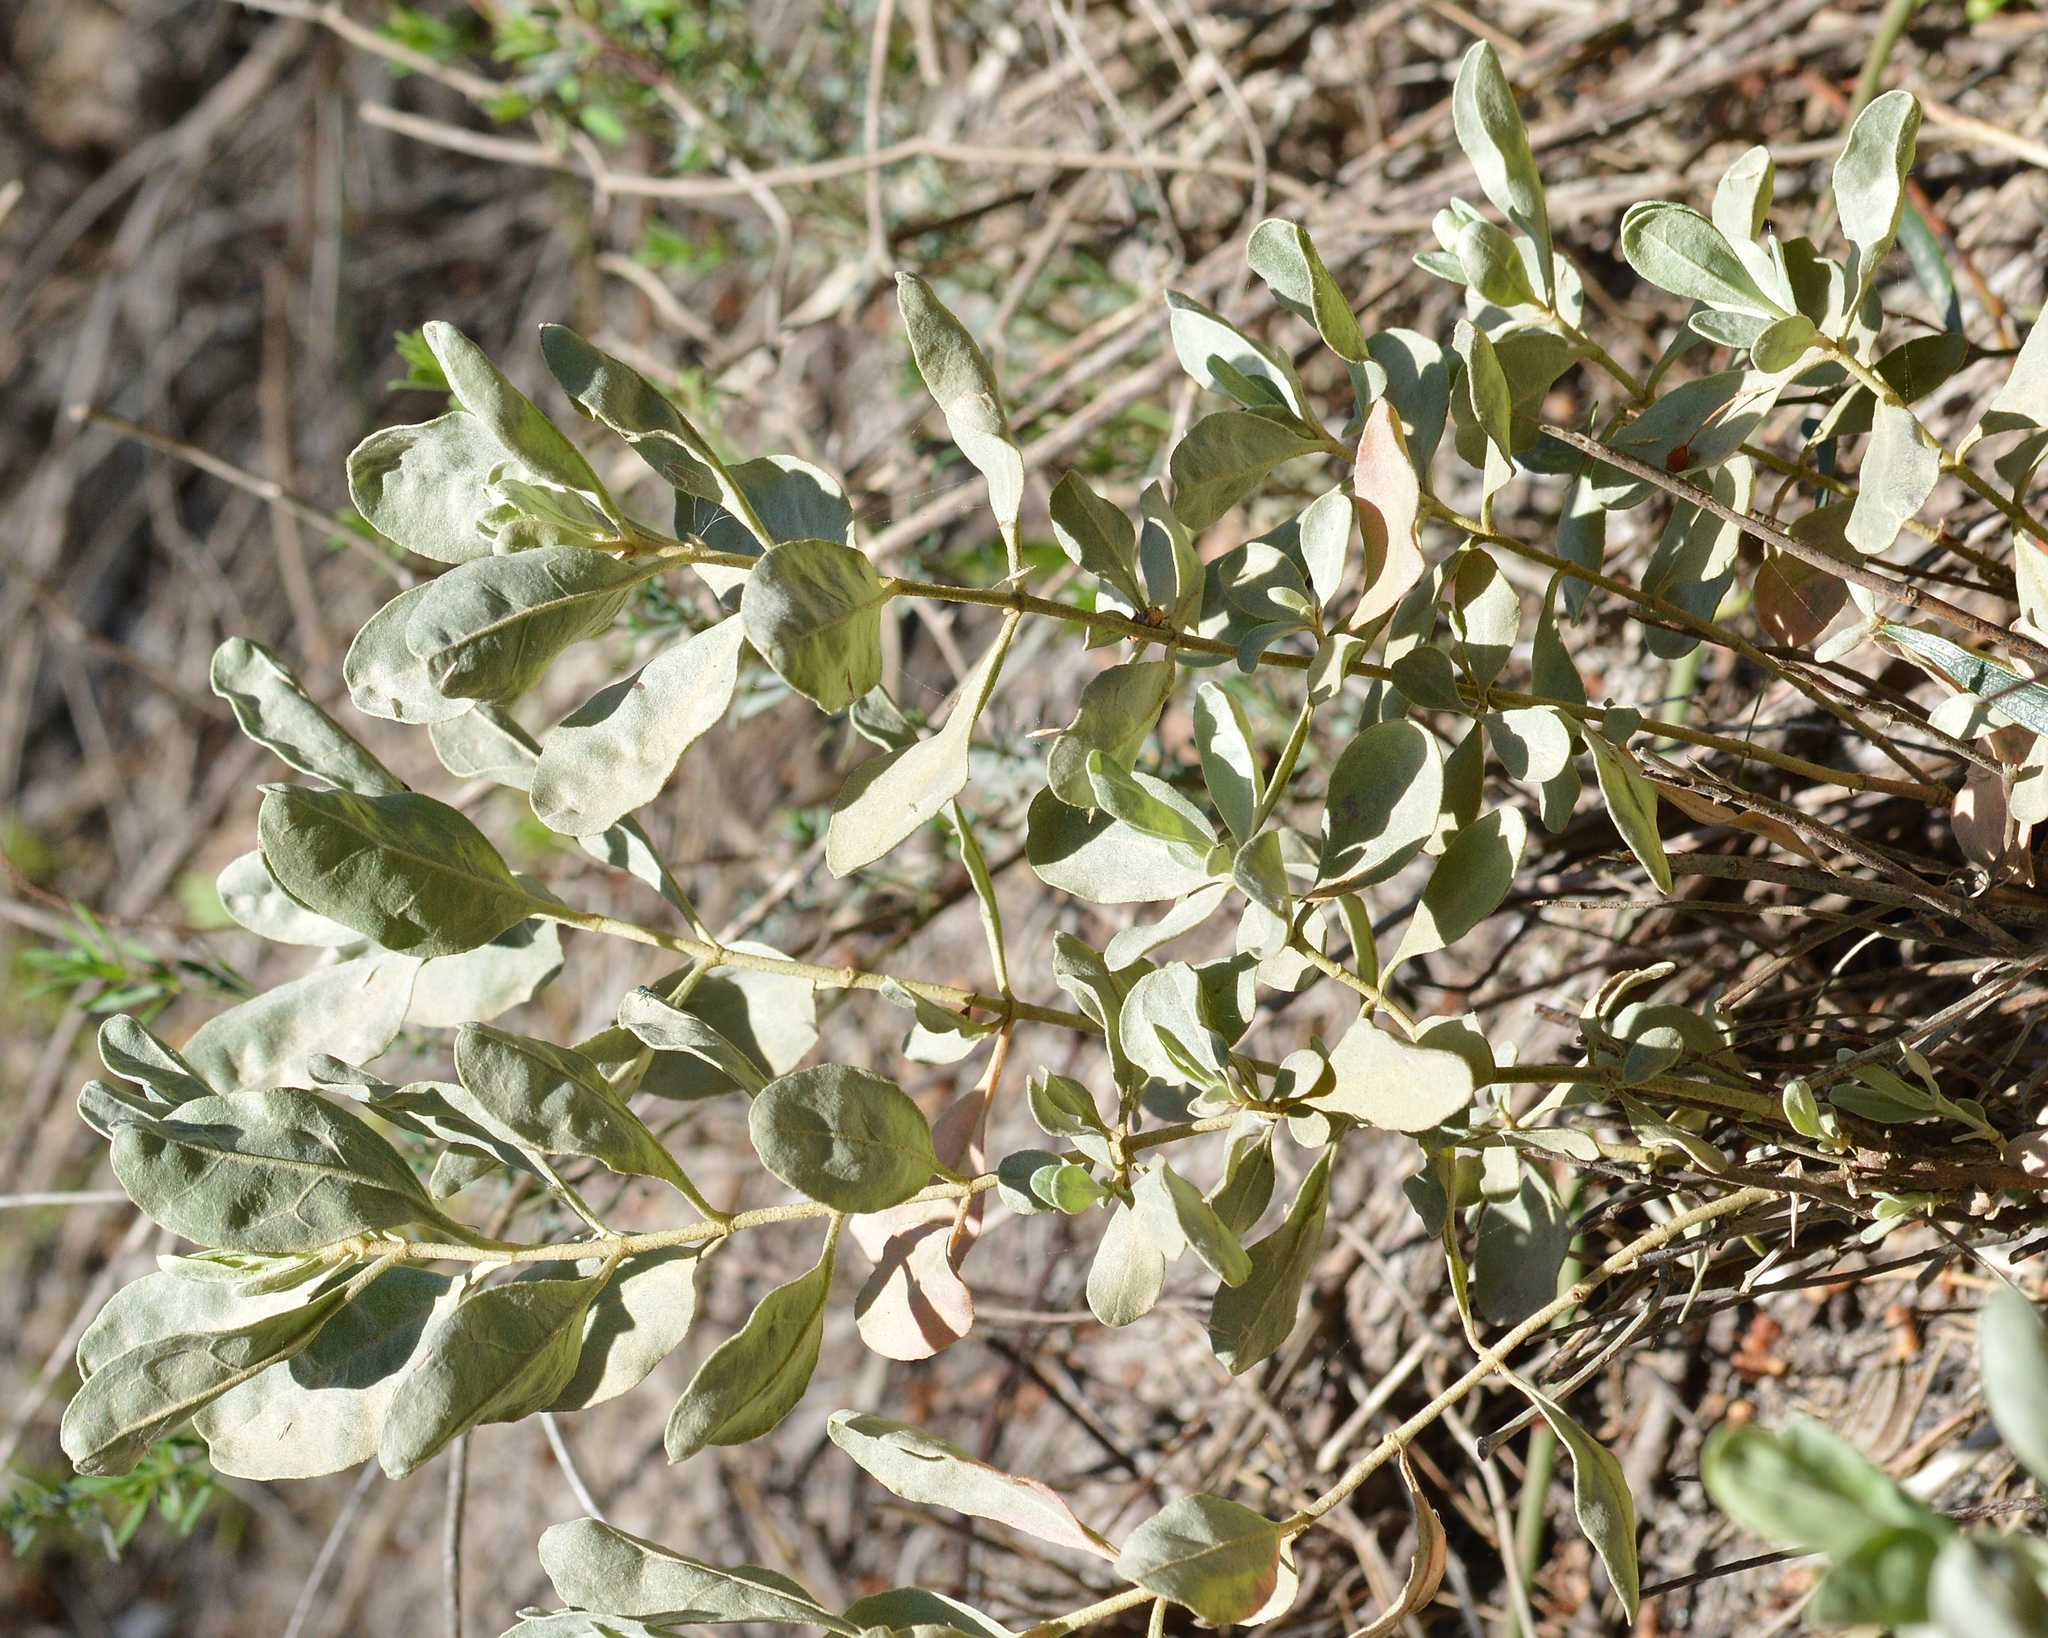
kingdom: Plantae
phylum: Tracheophyta
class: Magnoliopsida
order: Malvales
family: Cistaceae
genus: Halimium
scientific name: Halimium halimifolium
